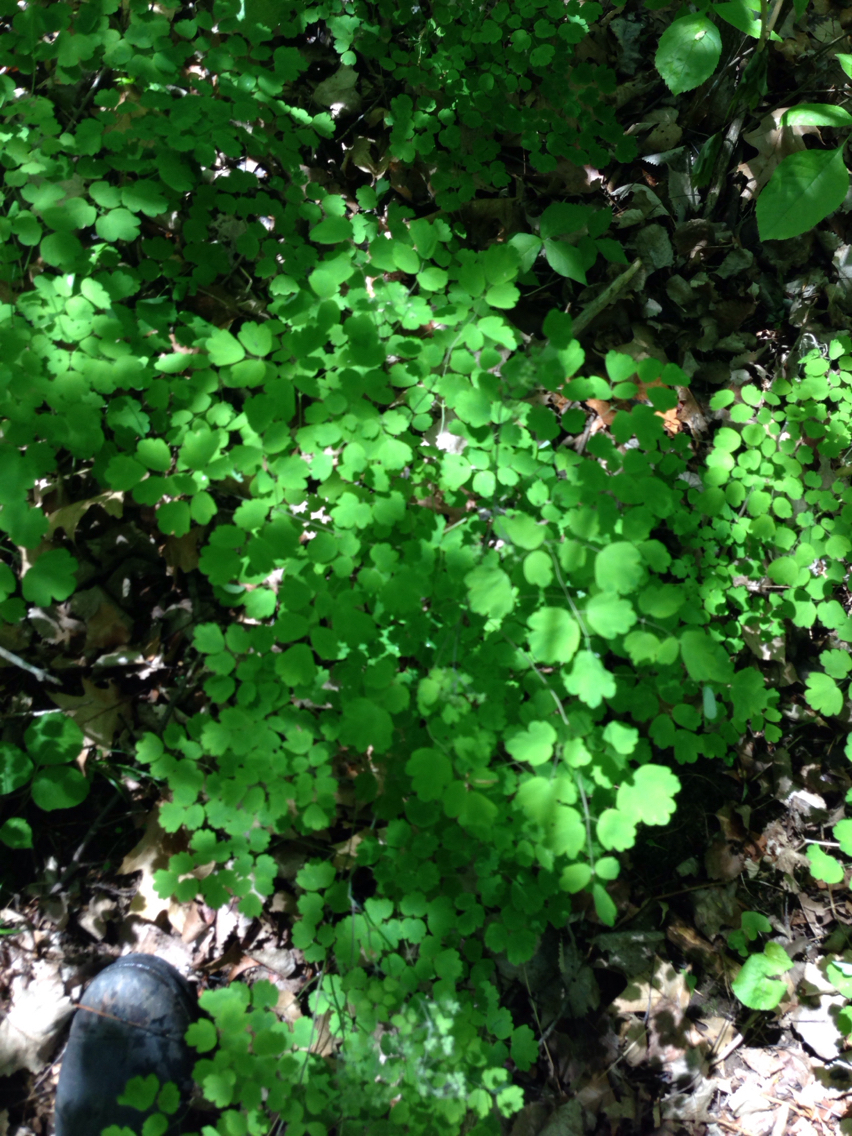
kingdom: Plantae
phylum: Tracheophyta
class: Magnoliopsida
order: Ranunculales
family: Ranunculaceae
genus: Thalictrum
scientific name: Thalictrum dioicum
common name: Early meadow-rue
